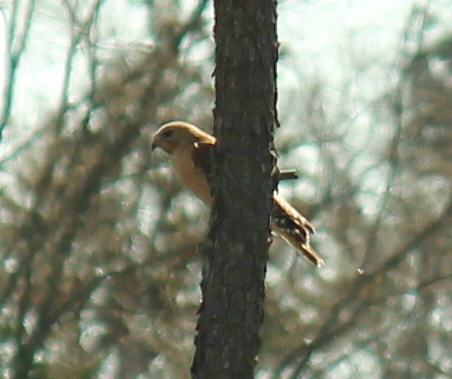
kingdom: Animalia
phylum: Chordata
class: Aves
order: Accipitriformes
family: Accipitridae
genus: Buteo
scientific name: Buteo lineatus
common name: Red-shouldered hawk
